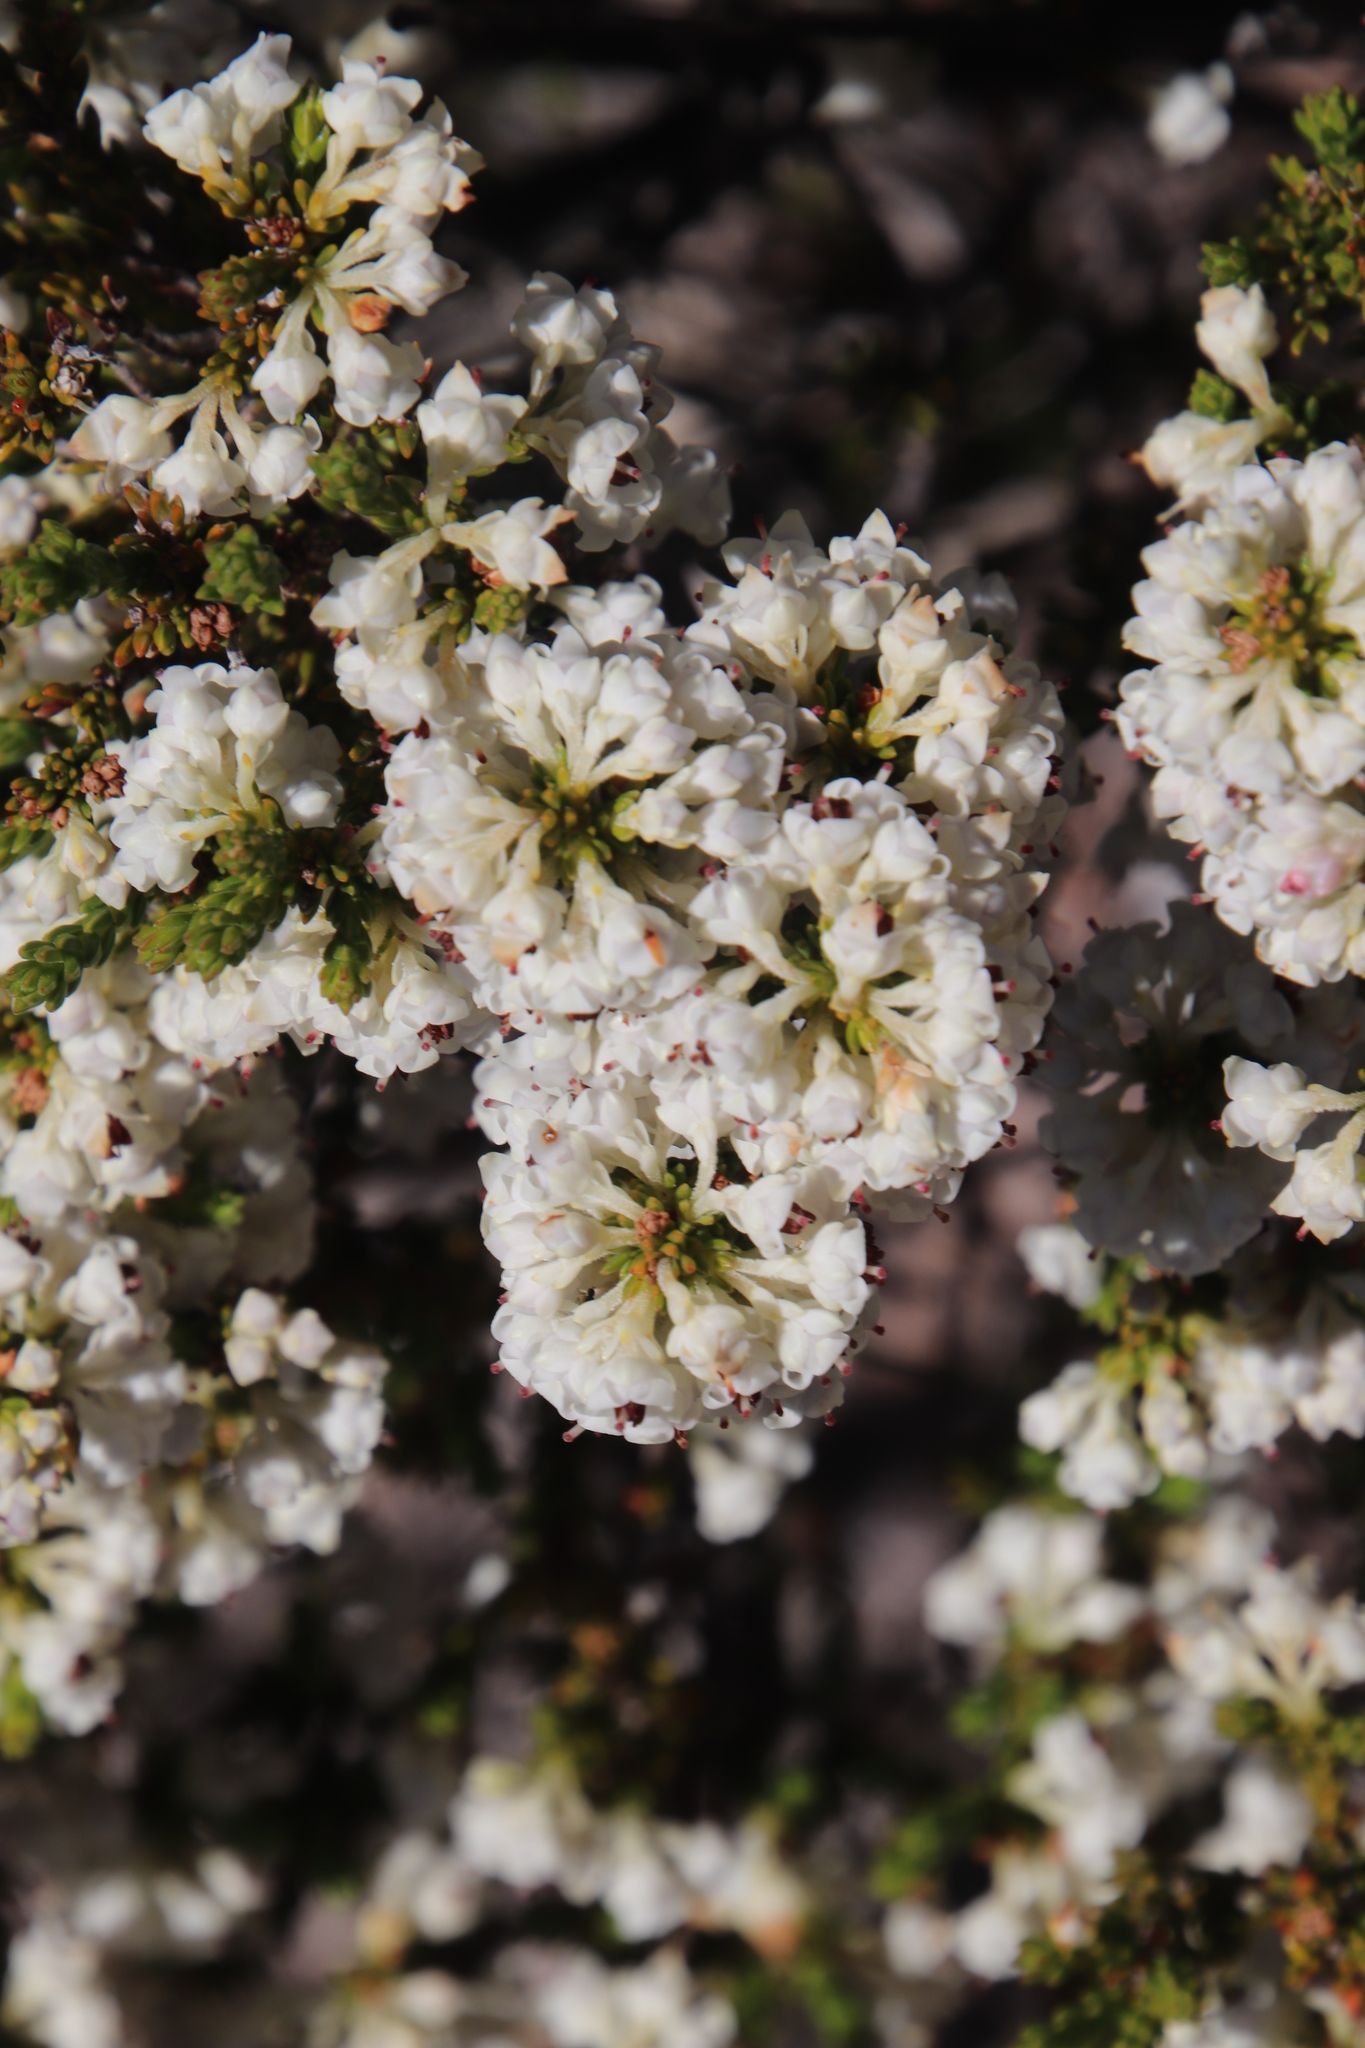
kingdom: Plantae
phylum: Tracheophyta
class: Magnoliopsida
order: Ericales
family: Ericaceae
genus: Erica
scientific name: Erica calycina
